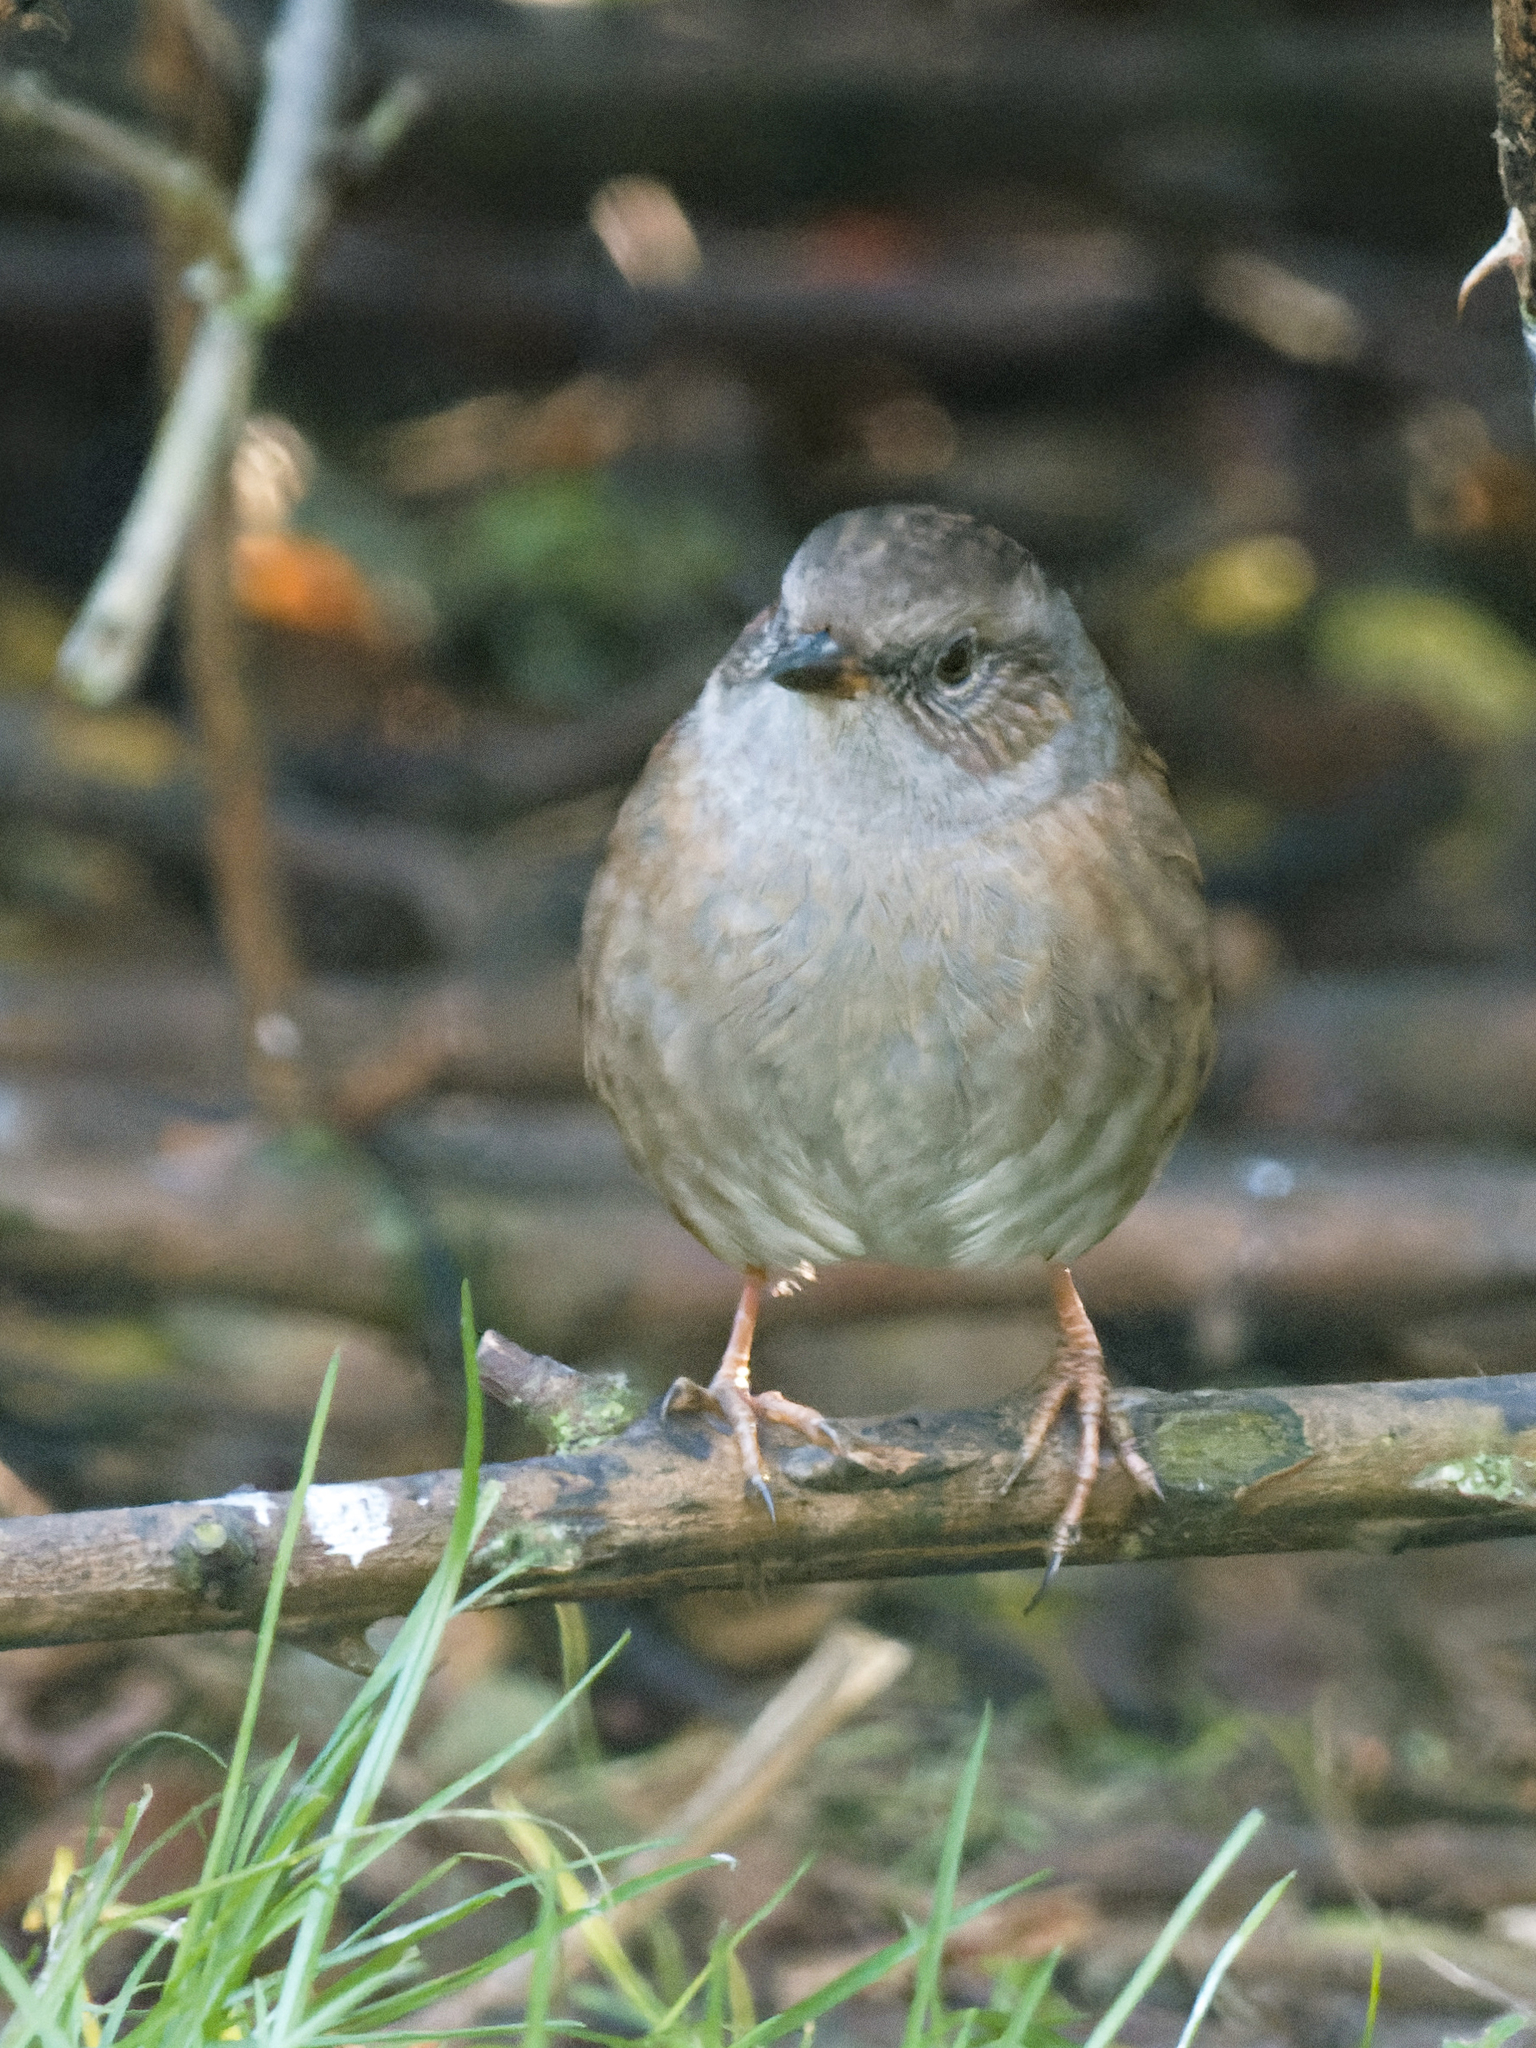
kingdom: Animalia
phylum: Chordata
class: Aves
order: Passeriformes
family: Prunellidae
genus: Prunella
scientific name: Prunella modularis
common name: Dunnock
